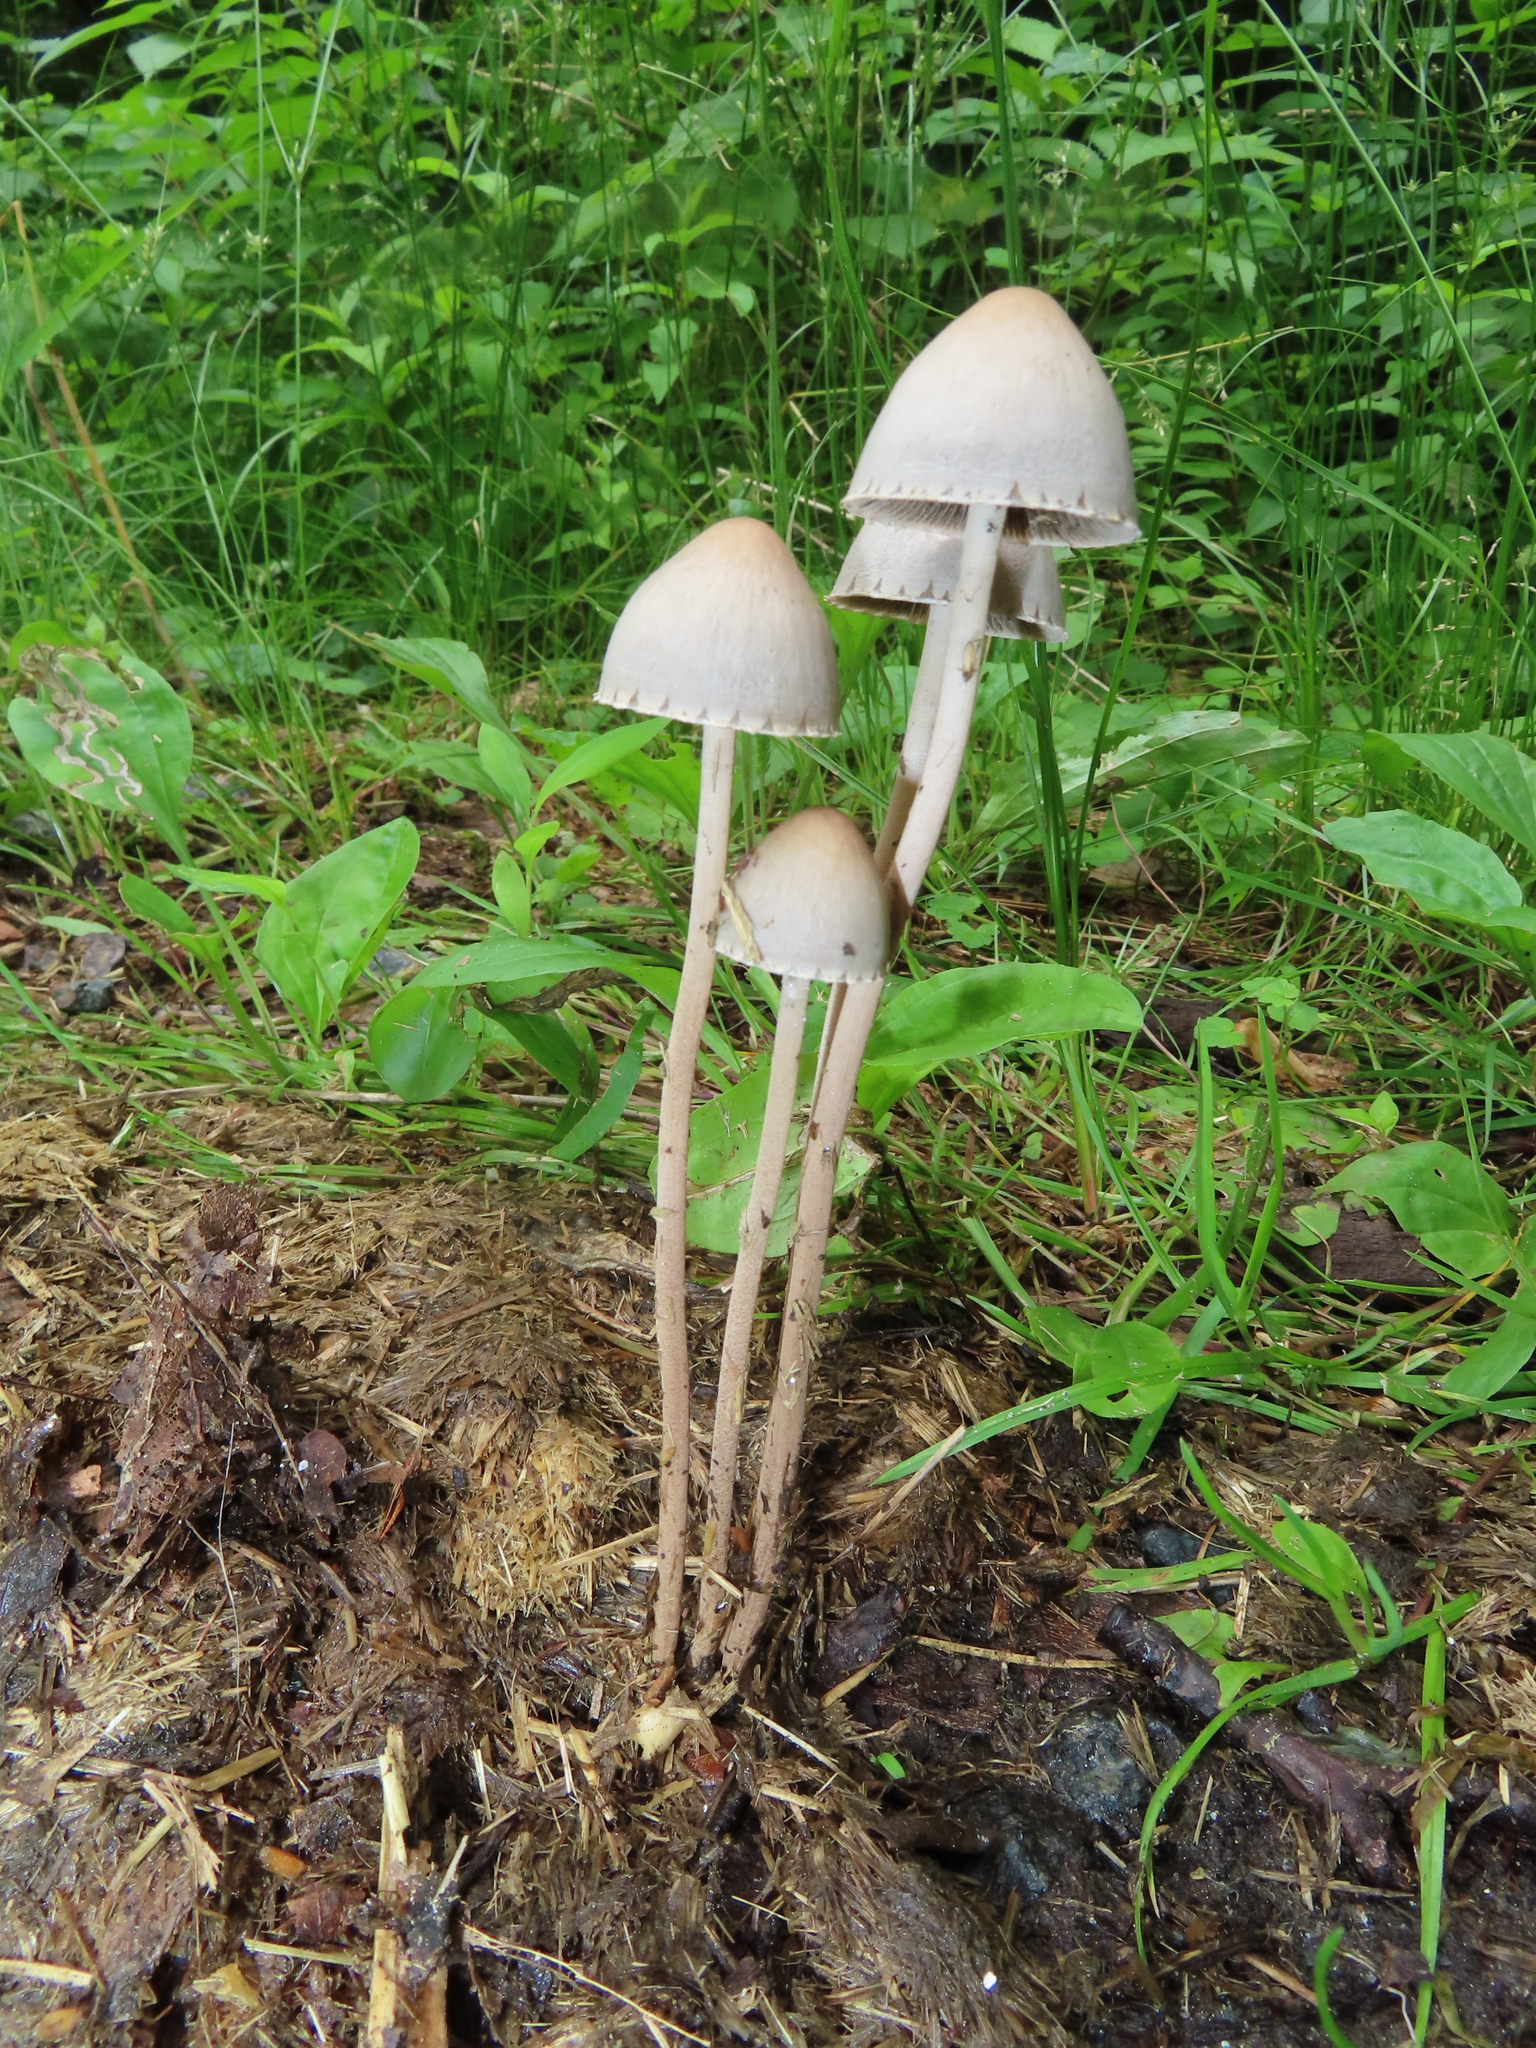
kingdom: Fungi
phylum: Basidiomycota
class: Agaricomycetes
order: Agaricales
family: Bolbitiaceae
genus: Panaeolus
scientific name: Panaeolus papilionaceus
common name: Petticoat mottlegill
